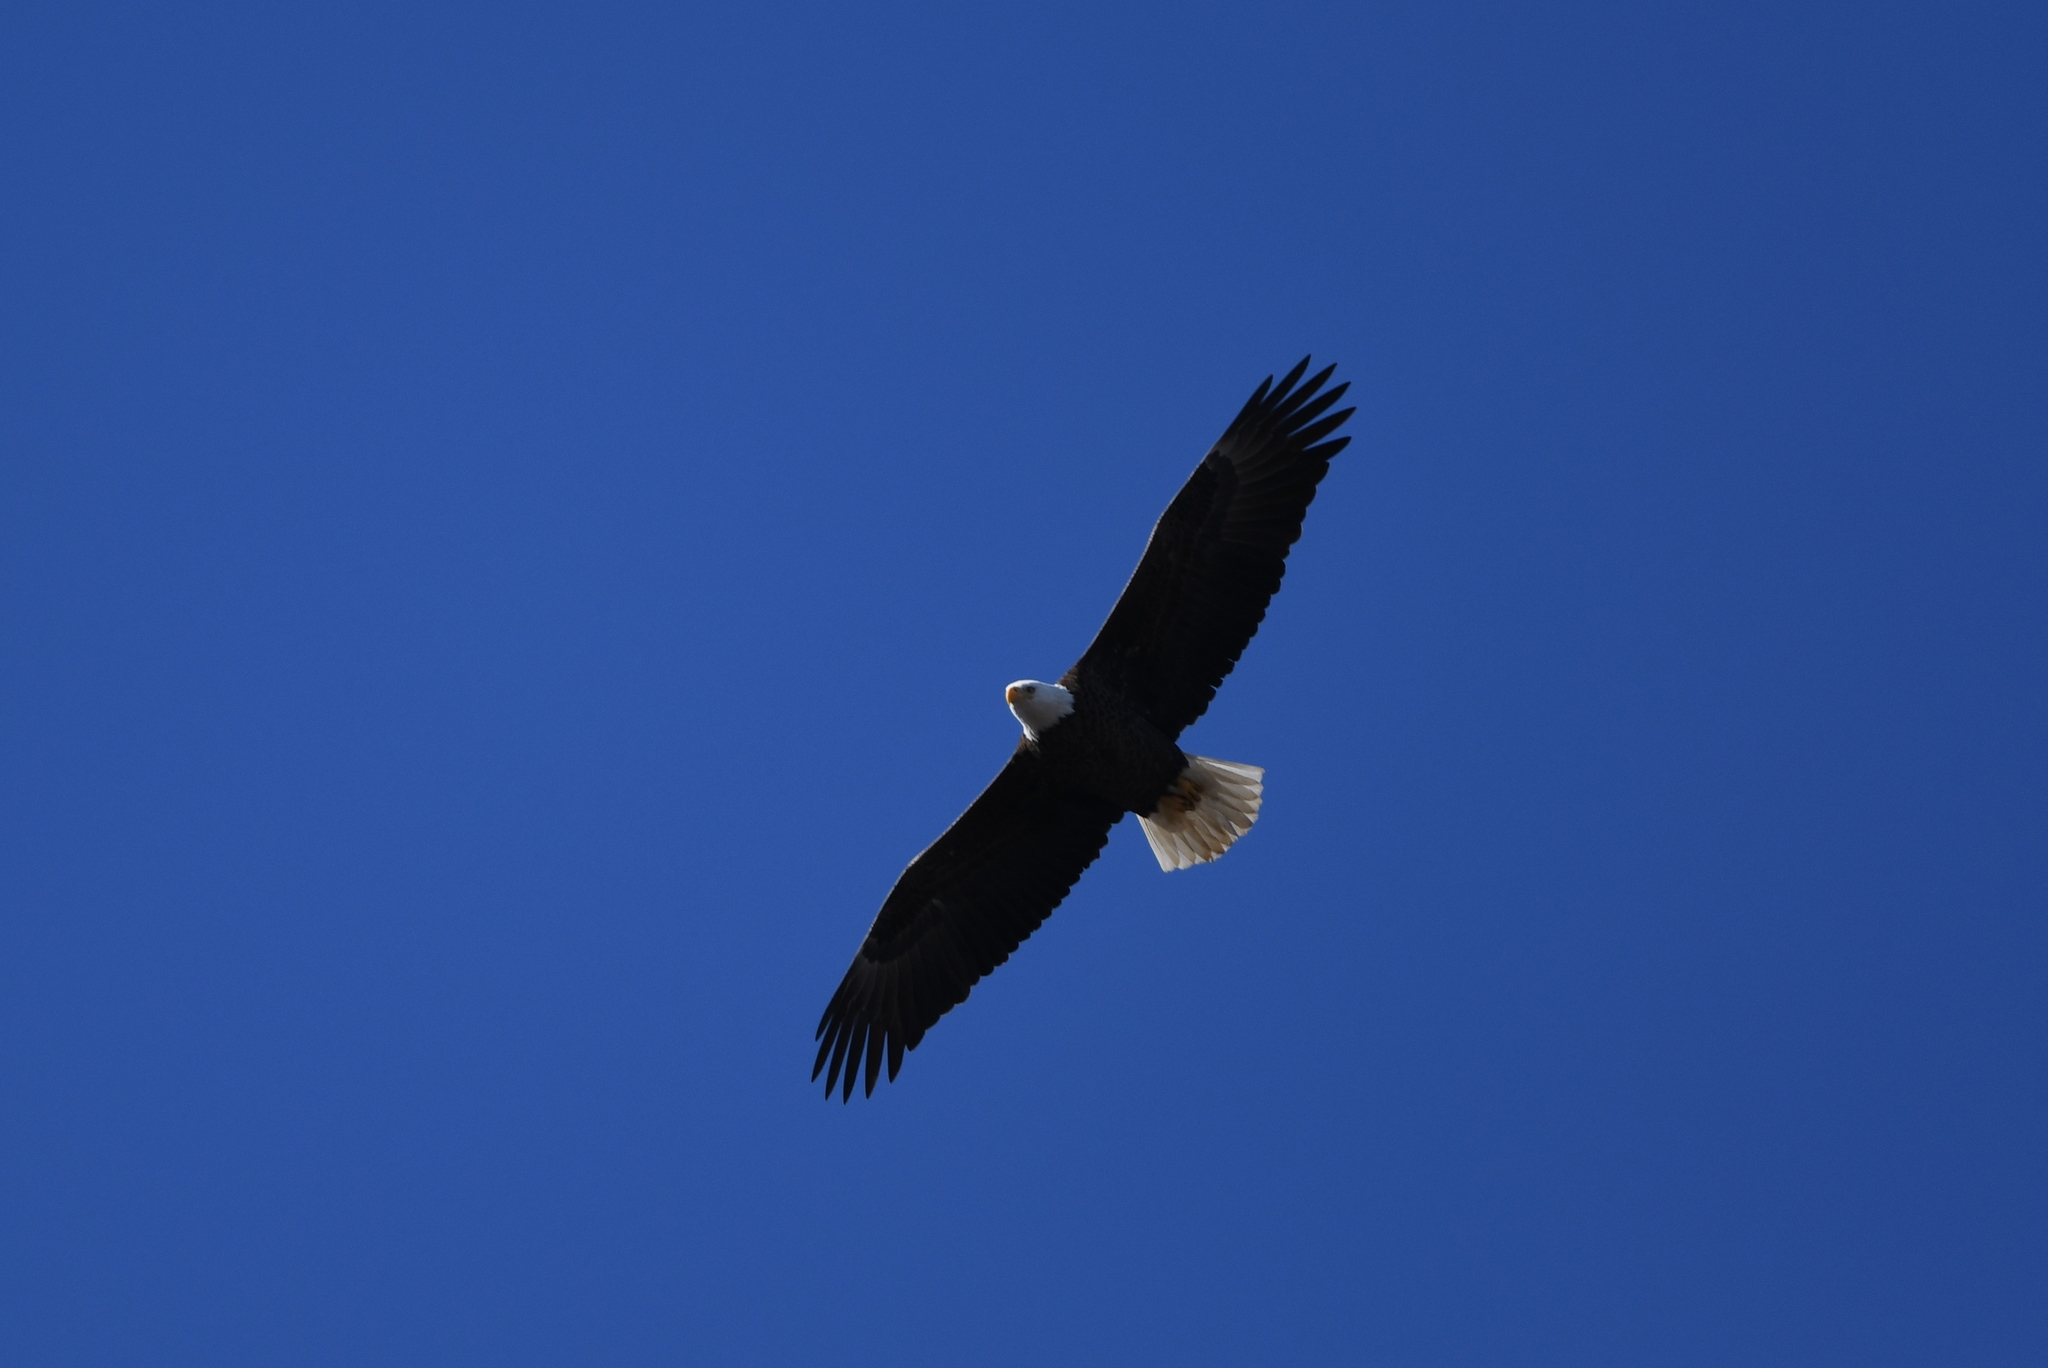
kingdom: Animalia
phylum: Chordata
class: Aves
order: Accipitriformes
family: Accipitridae
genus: Haliaeetus
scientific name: Haliaeetus leucocephalus
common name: Bald eagle
